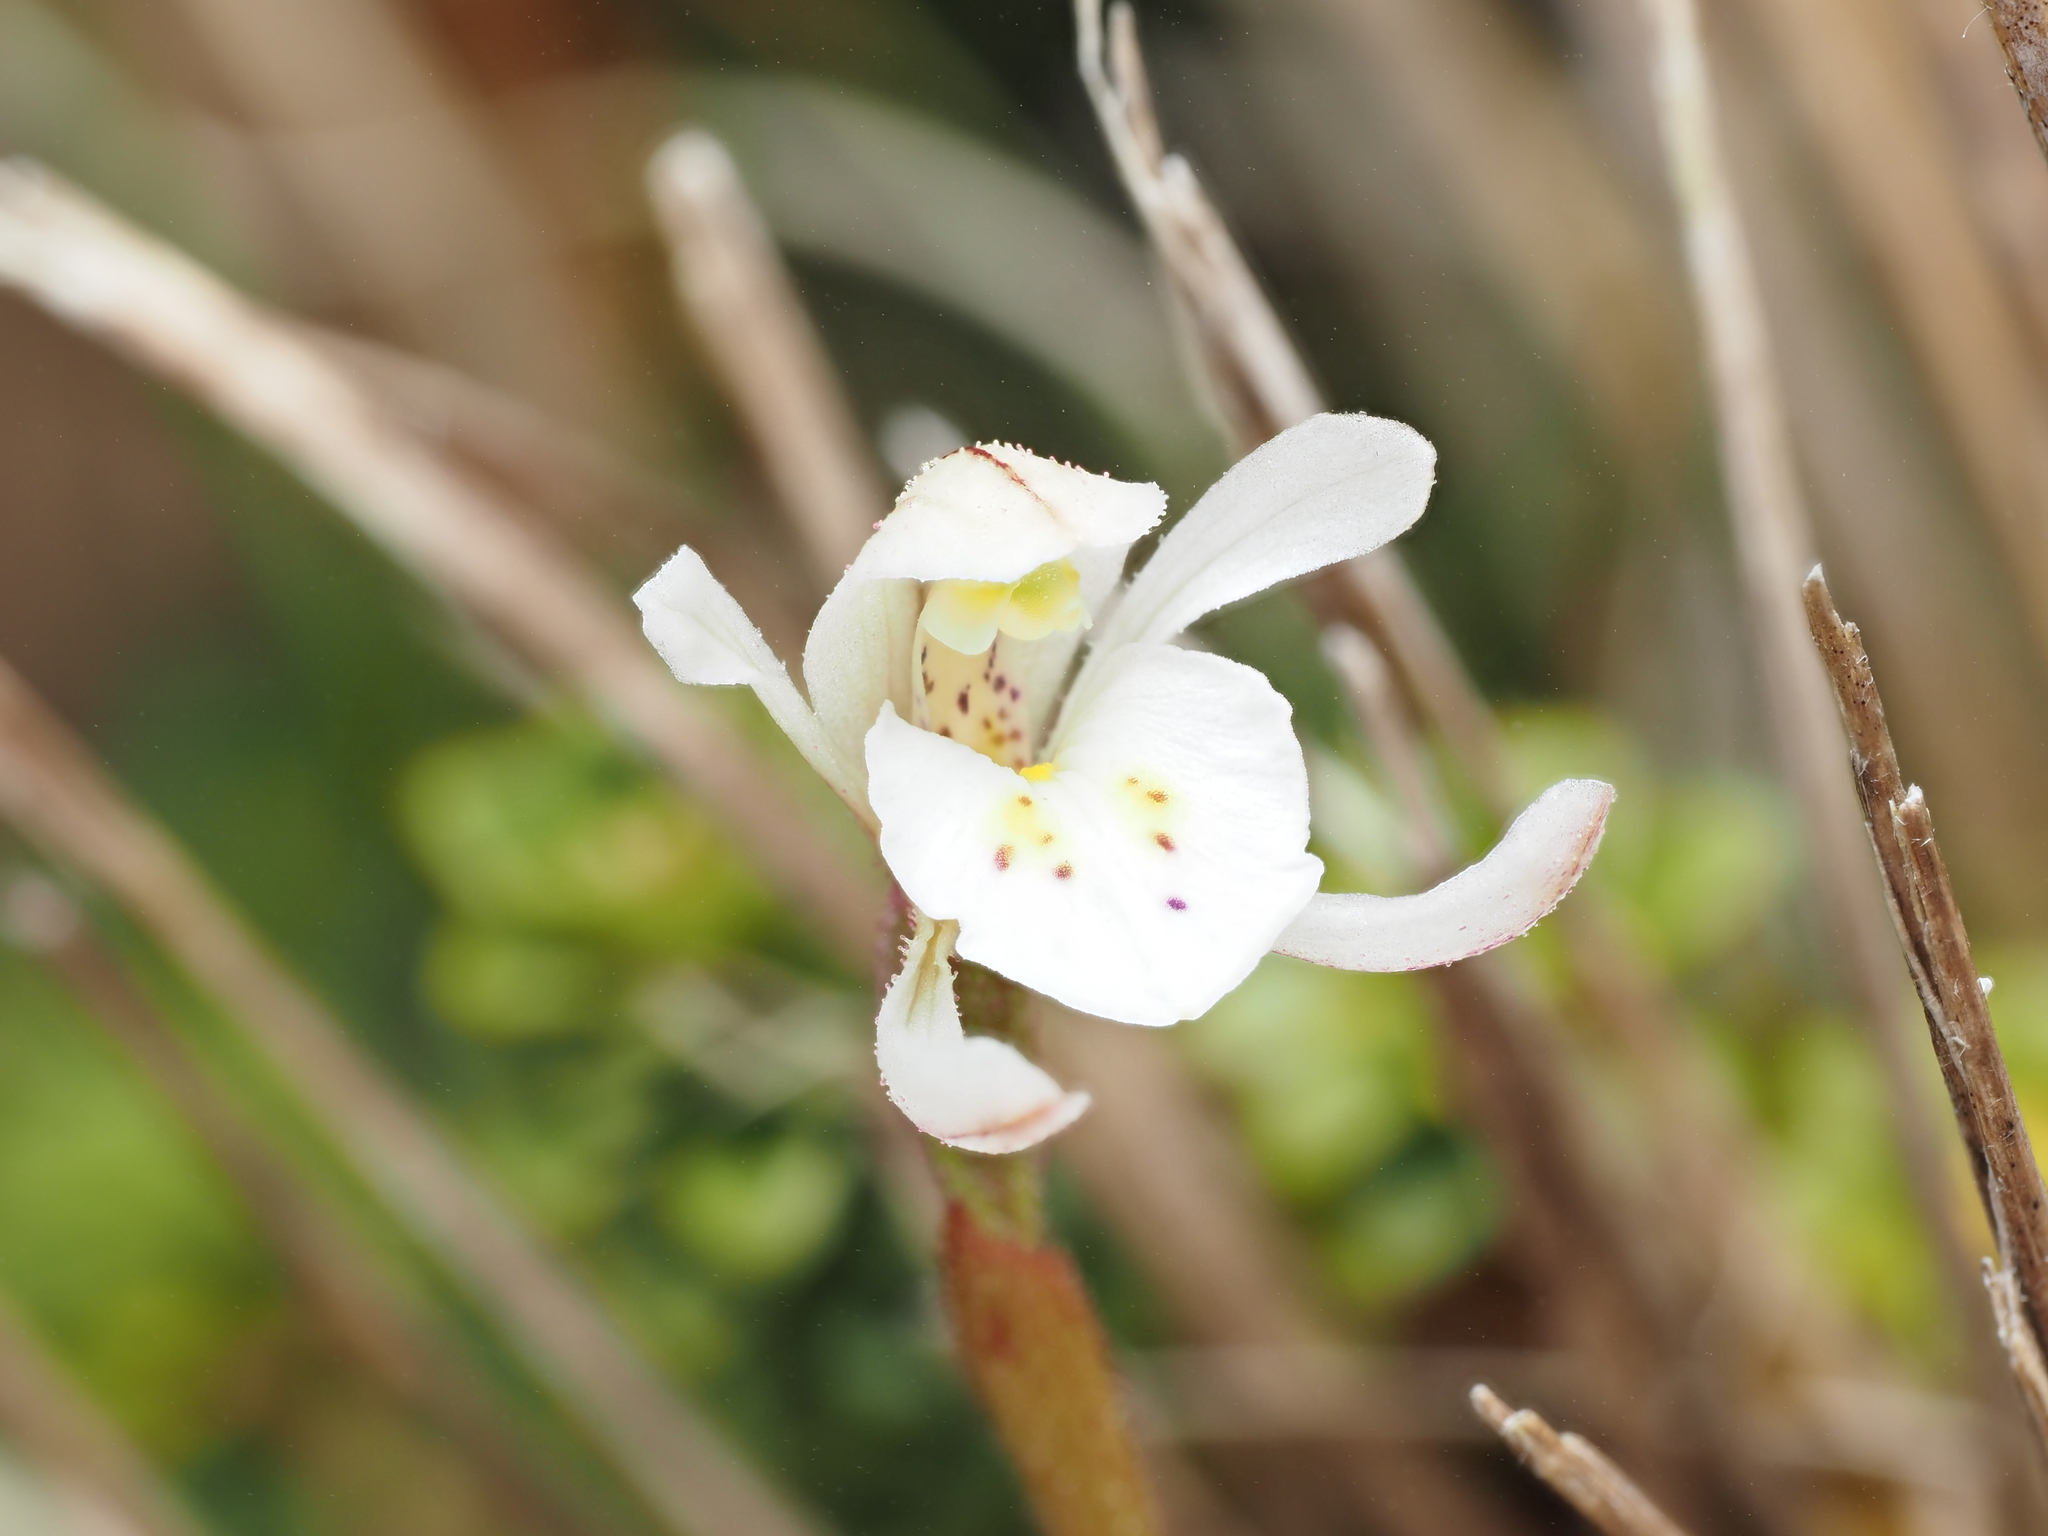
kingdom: Plantae
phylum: Tracheophyta
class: Liliopsida
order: Asparagales
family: Orchidaceae
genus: Aporostylis
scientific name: Aporostylis bifolia
